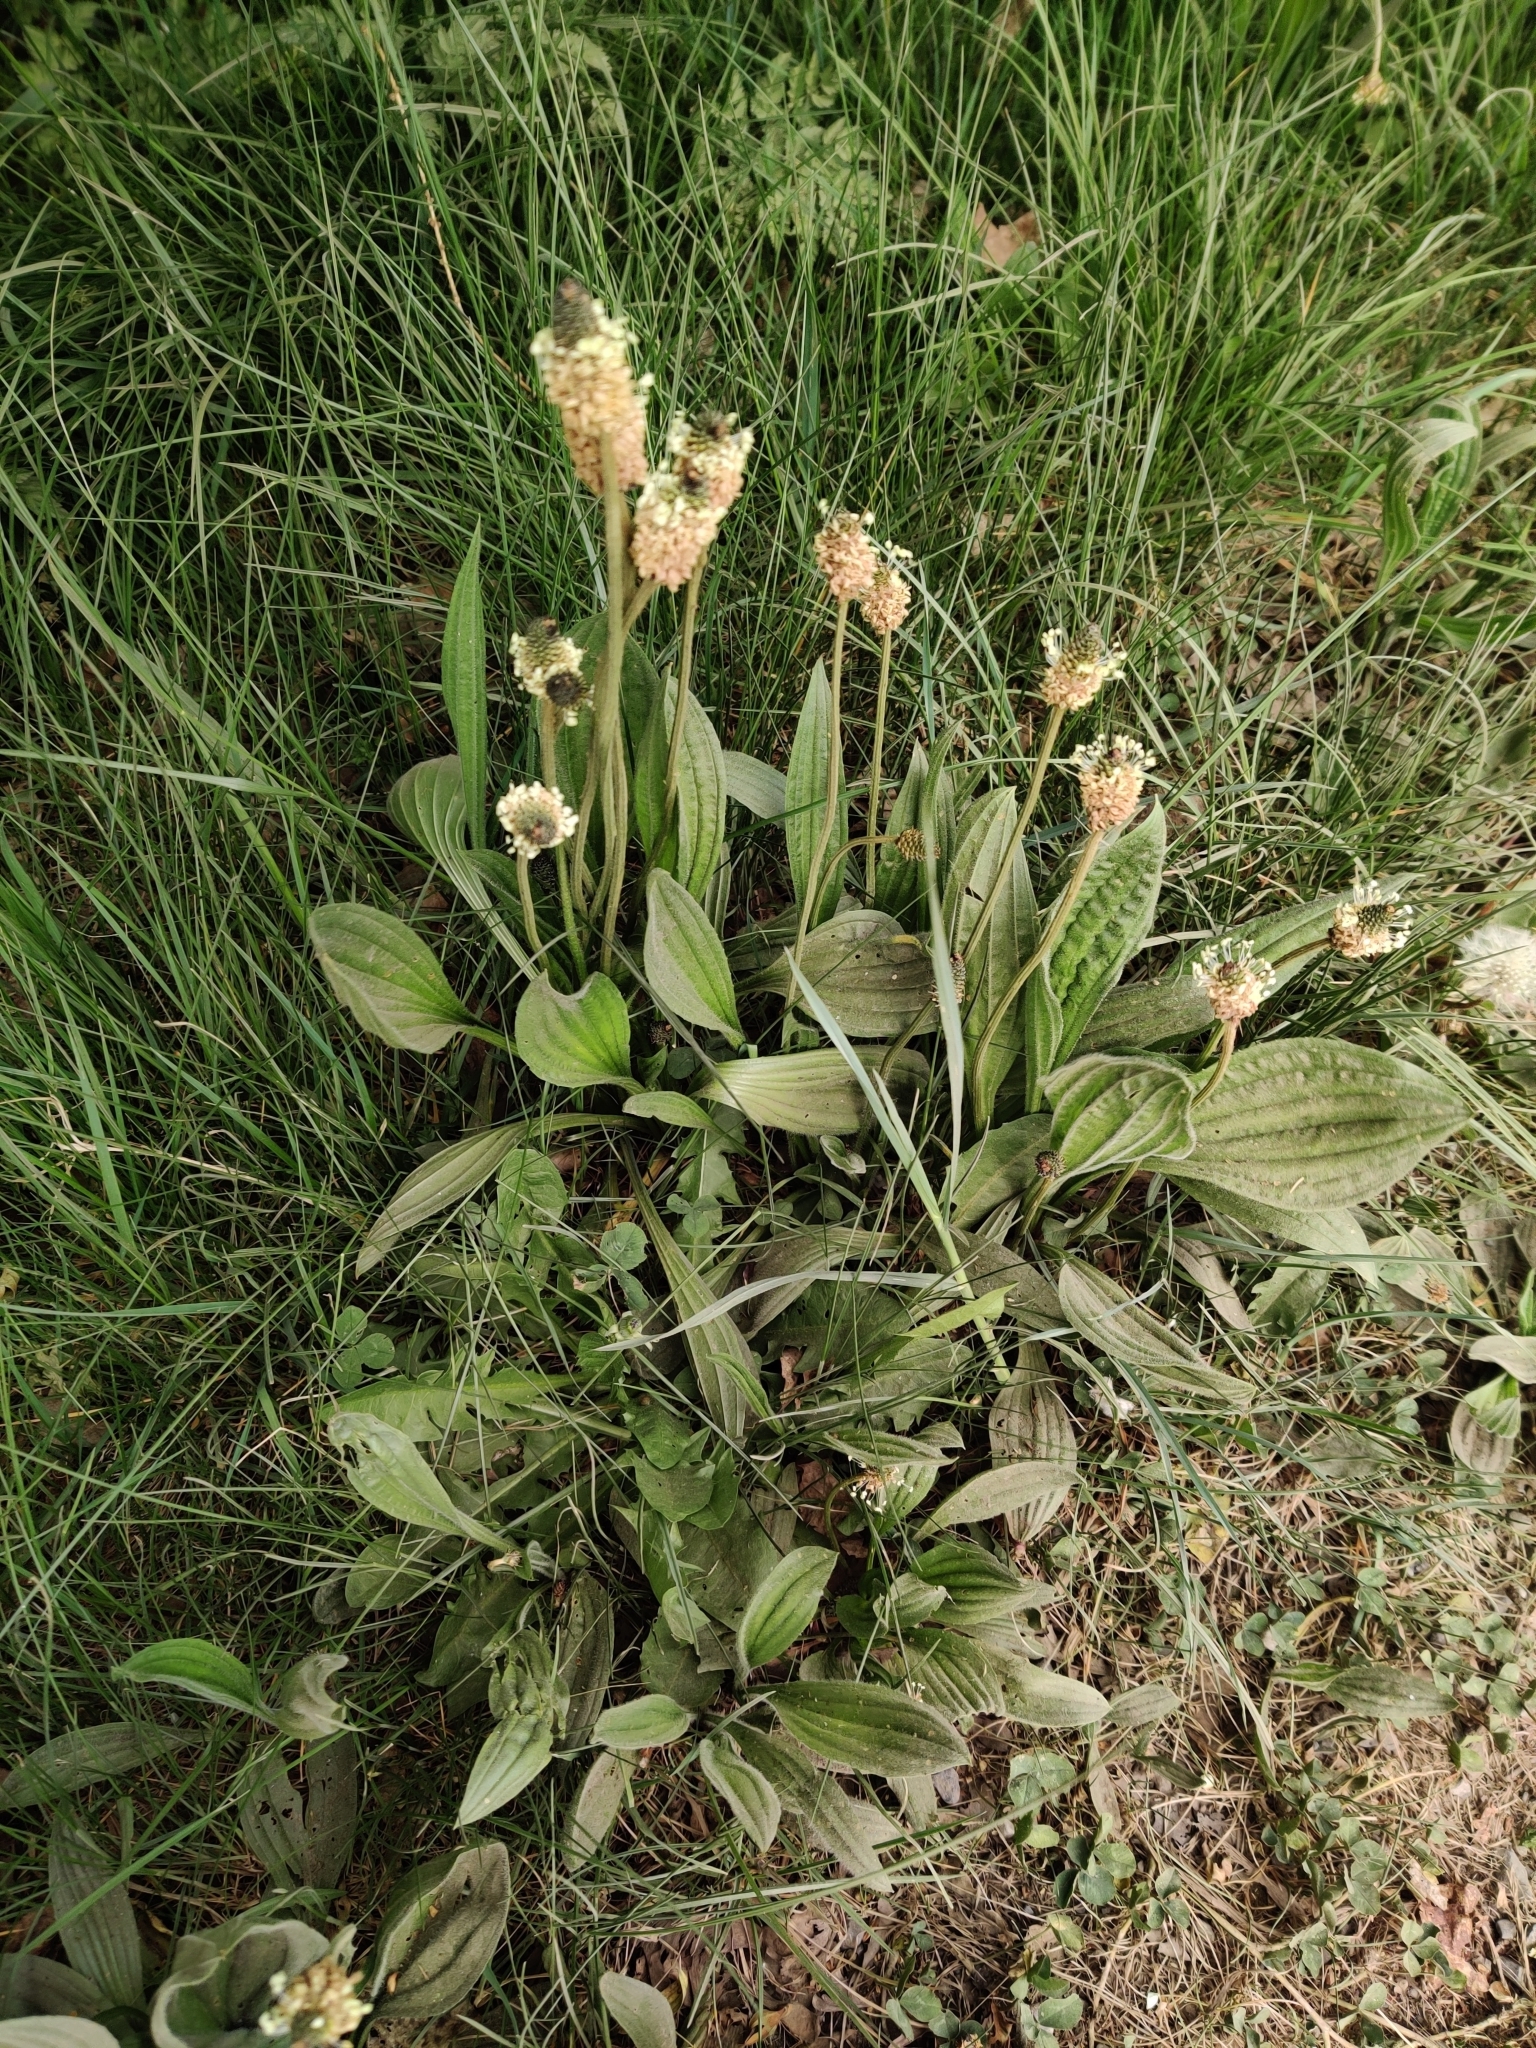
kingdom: Plantae
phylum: Tracheophyta
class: Magnoliopsida
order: Lamiales
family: Plantaginaceae
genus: Plantago
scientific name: Plantago lanceolata
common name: Ribwort plantain
